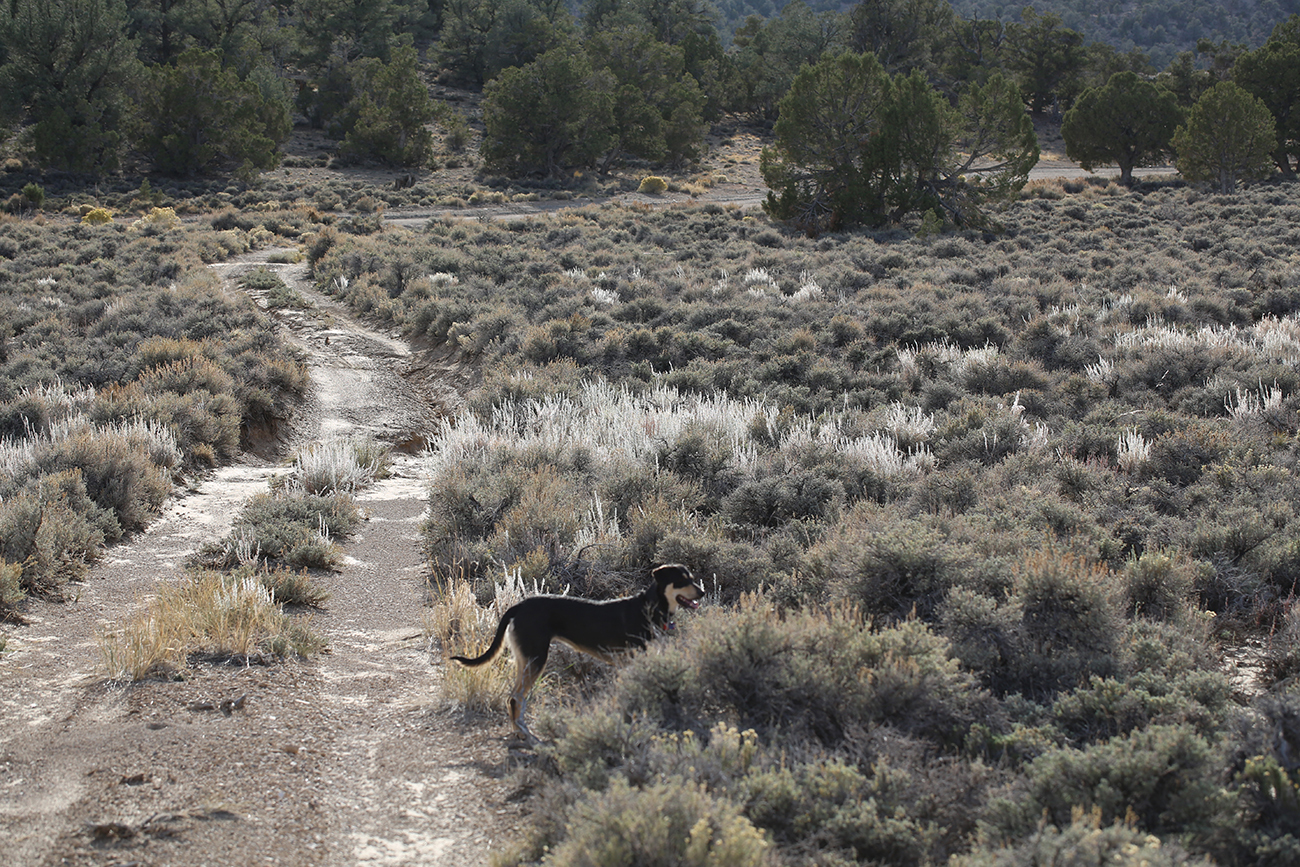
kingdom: Plantae
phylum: Tracheophyta
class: Magnoliopsida
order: Caryophyllales
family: Amaranthaceae
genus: Krascheninnikovia
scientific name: Krascheninnikovia lanata
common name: Winterfat
